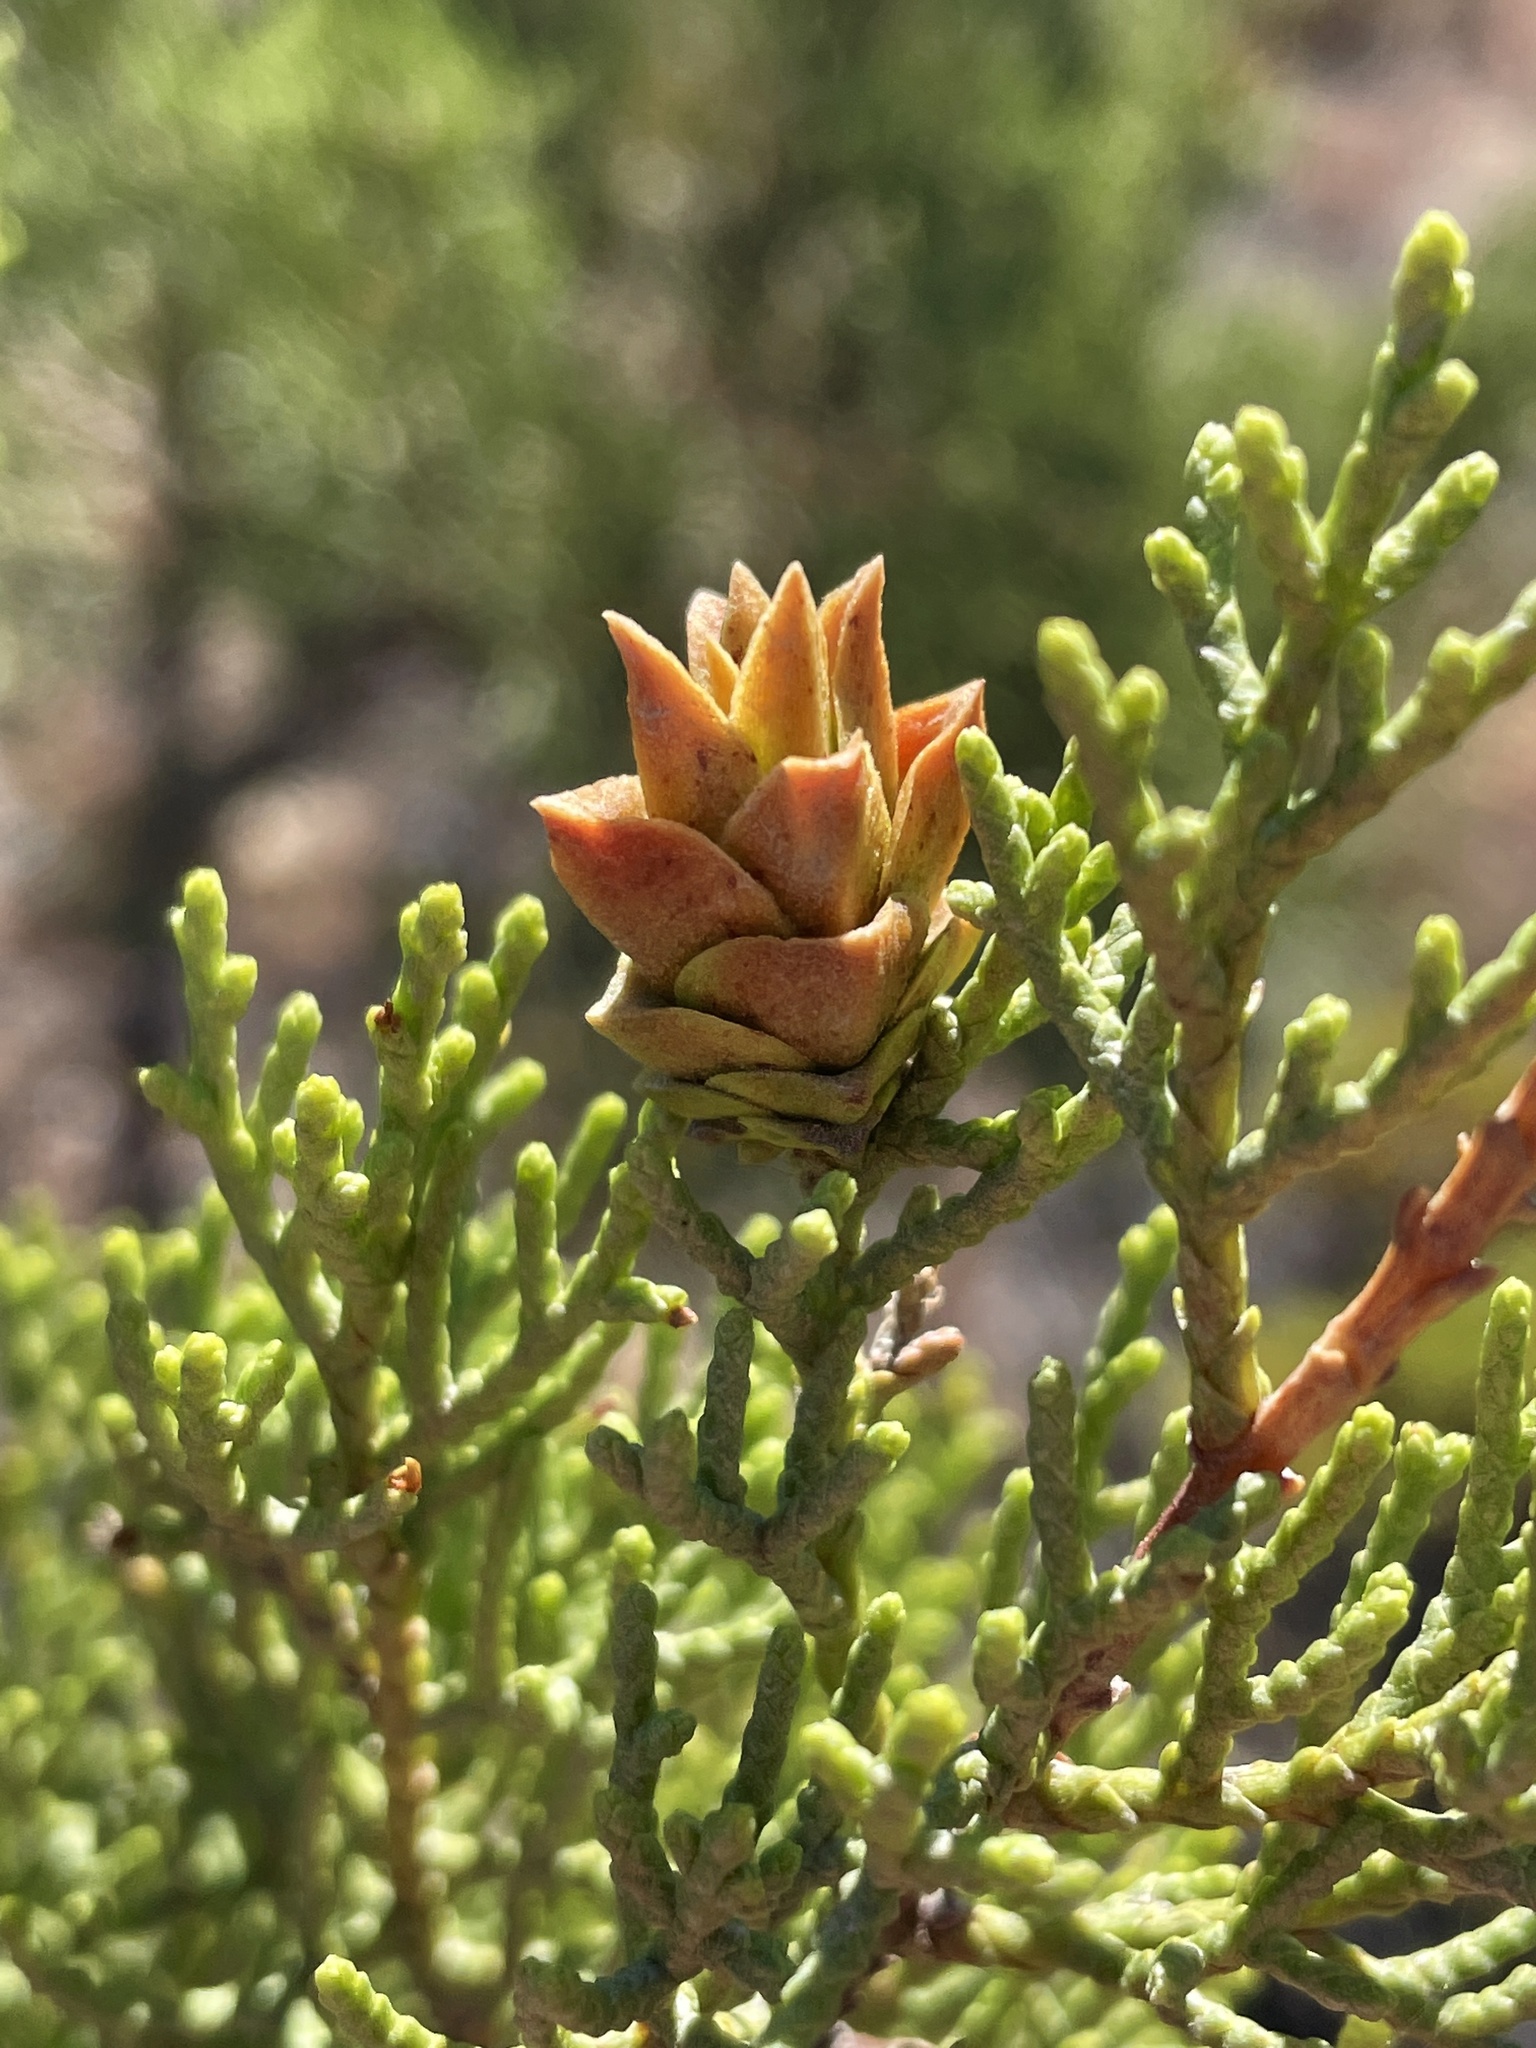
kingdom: Animalia
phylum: Arthropoda
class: Insecta
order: Diptera
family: Cecidomyiidae
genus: Oligotrophus
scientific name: Oligotrophus cupressi
